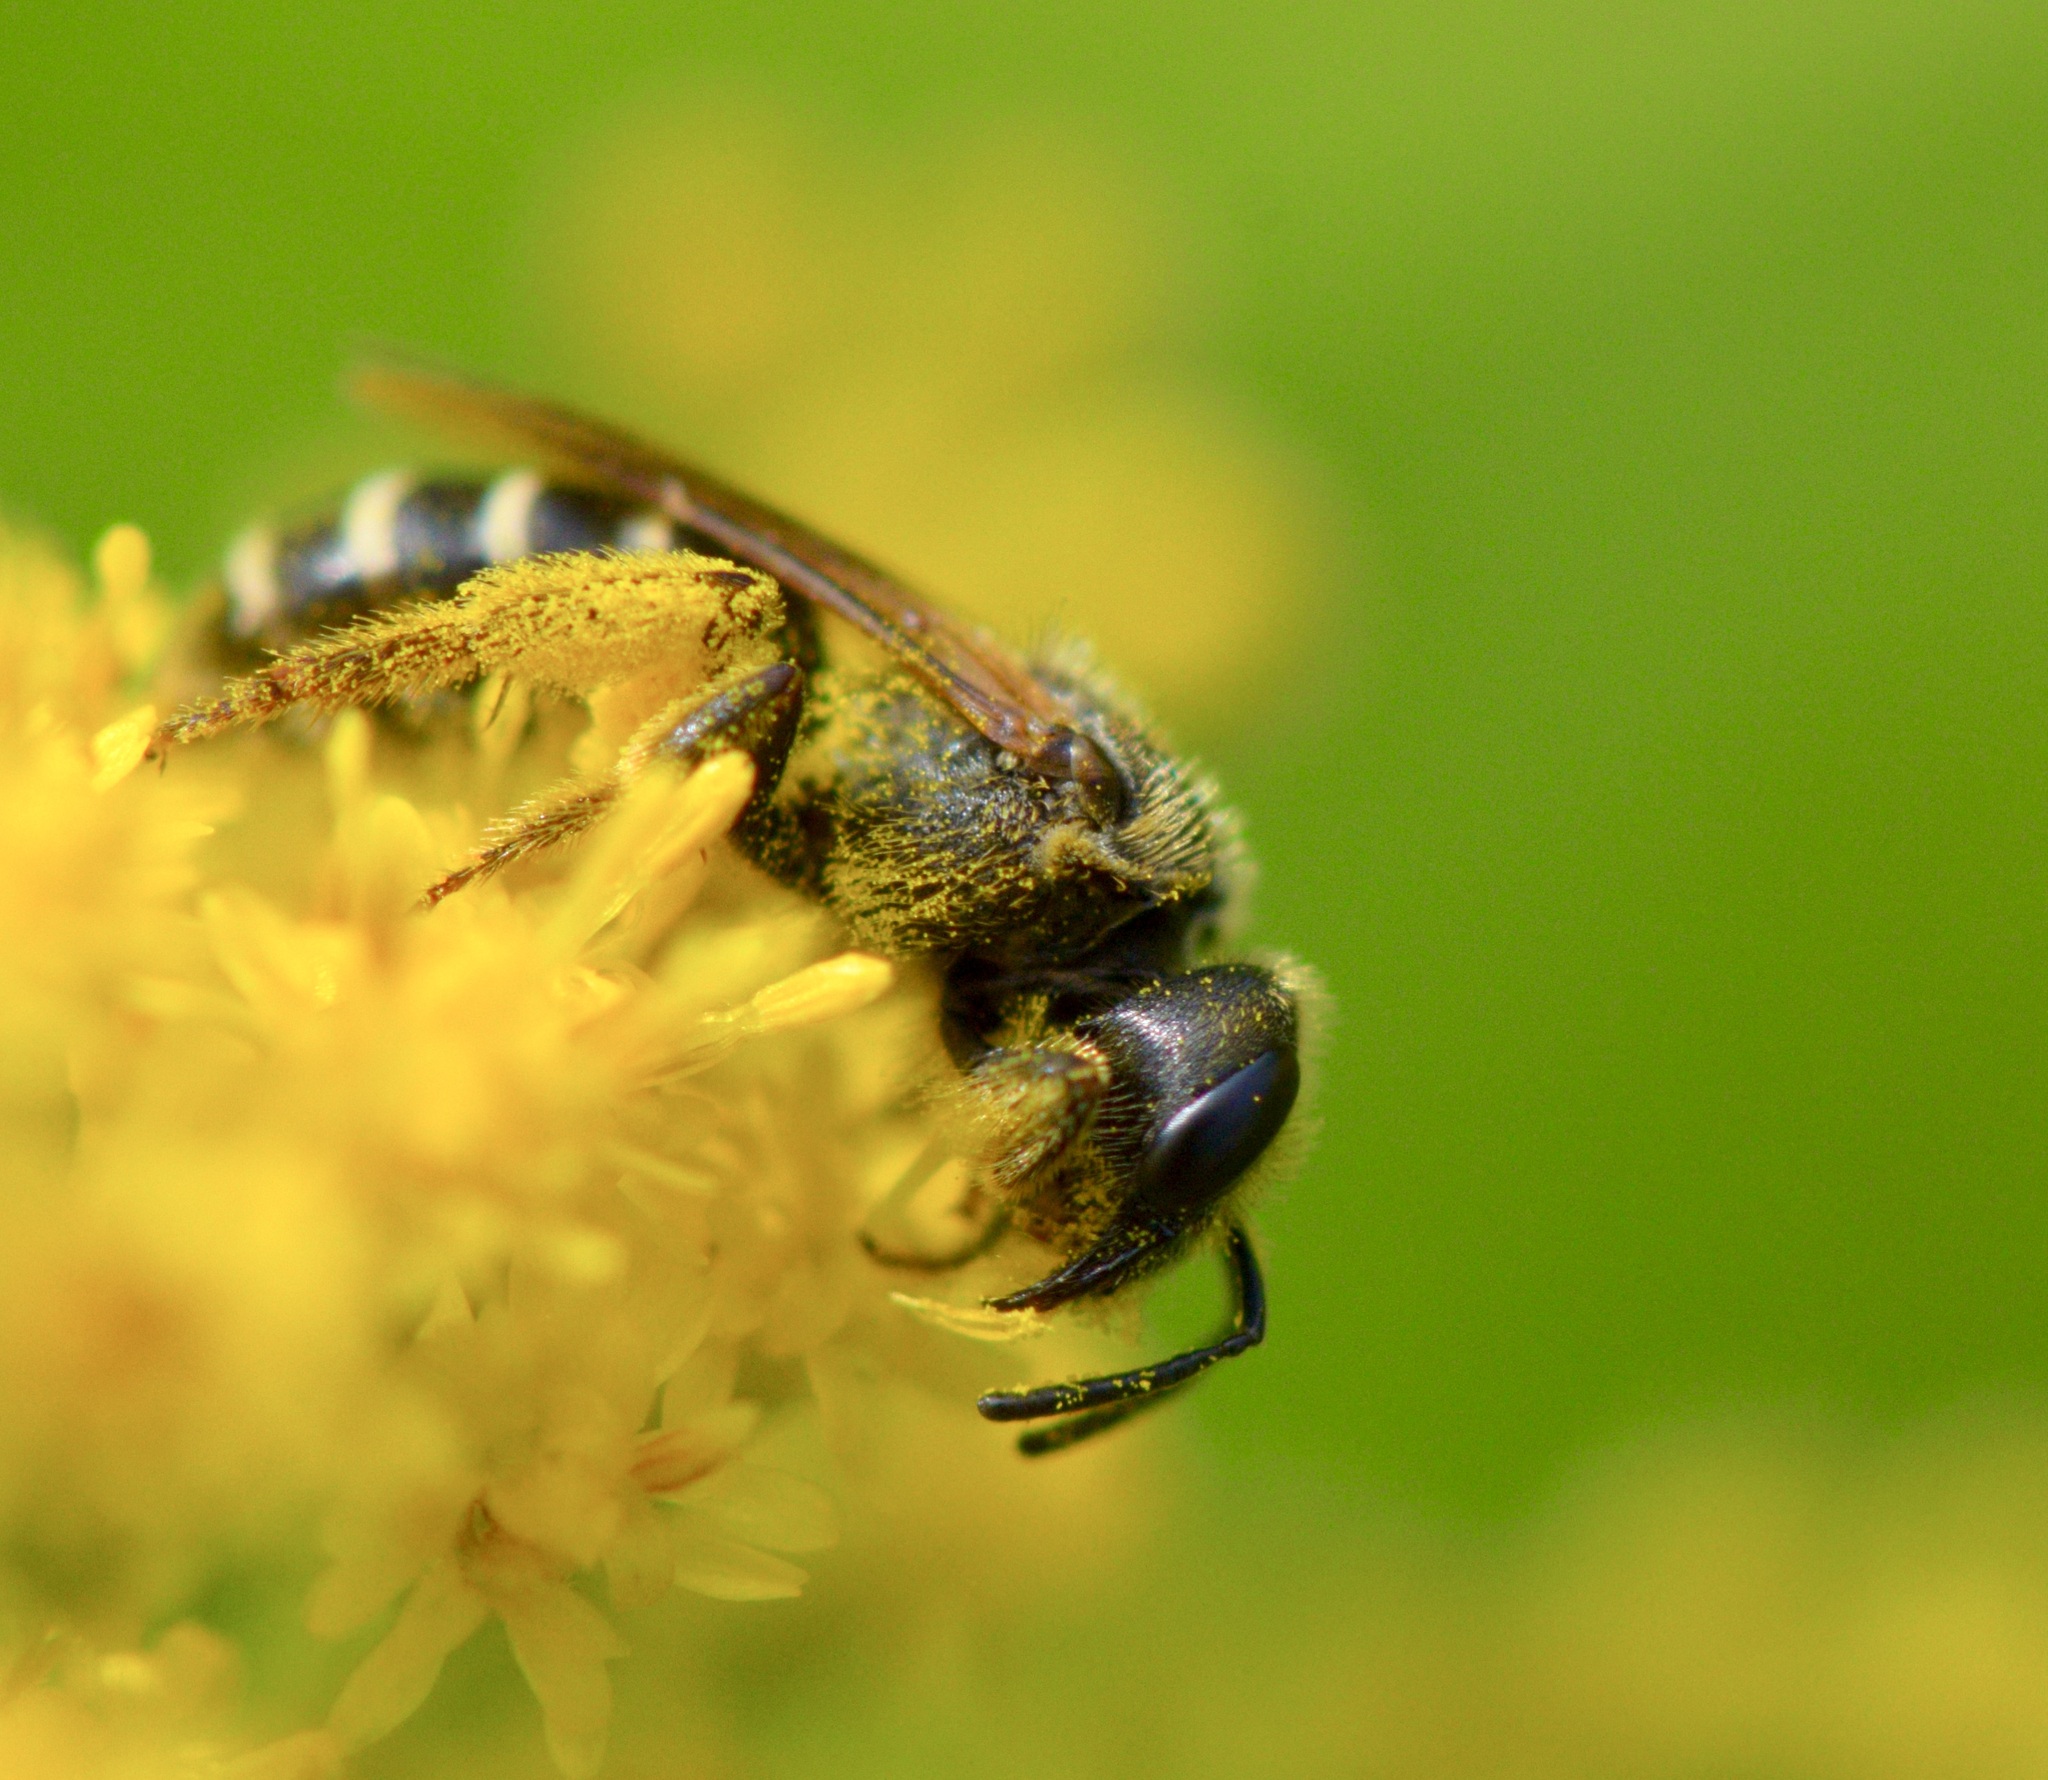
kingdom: Animalia
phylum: Arthropoda
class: Insecta
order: Hymenoptera
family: Halictidae
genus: Halictus
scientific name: Halictus ligatus
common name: Ligated furrow bee
